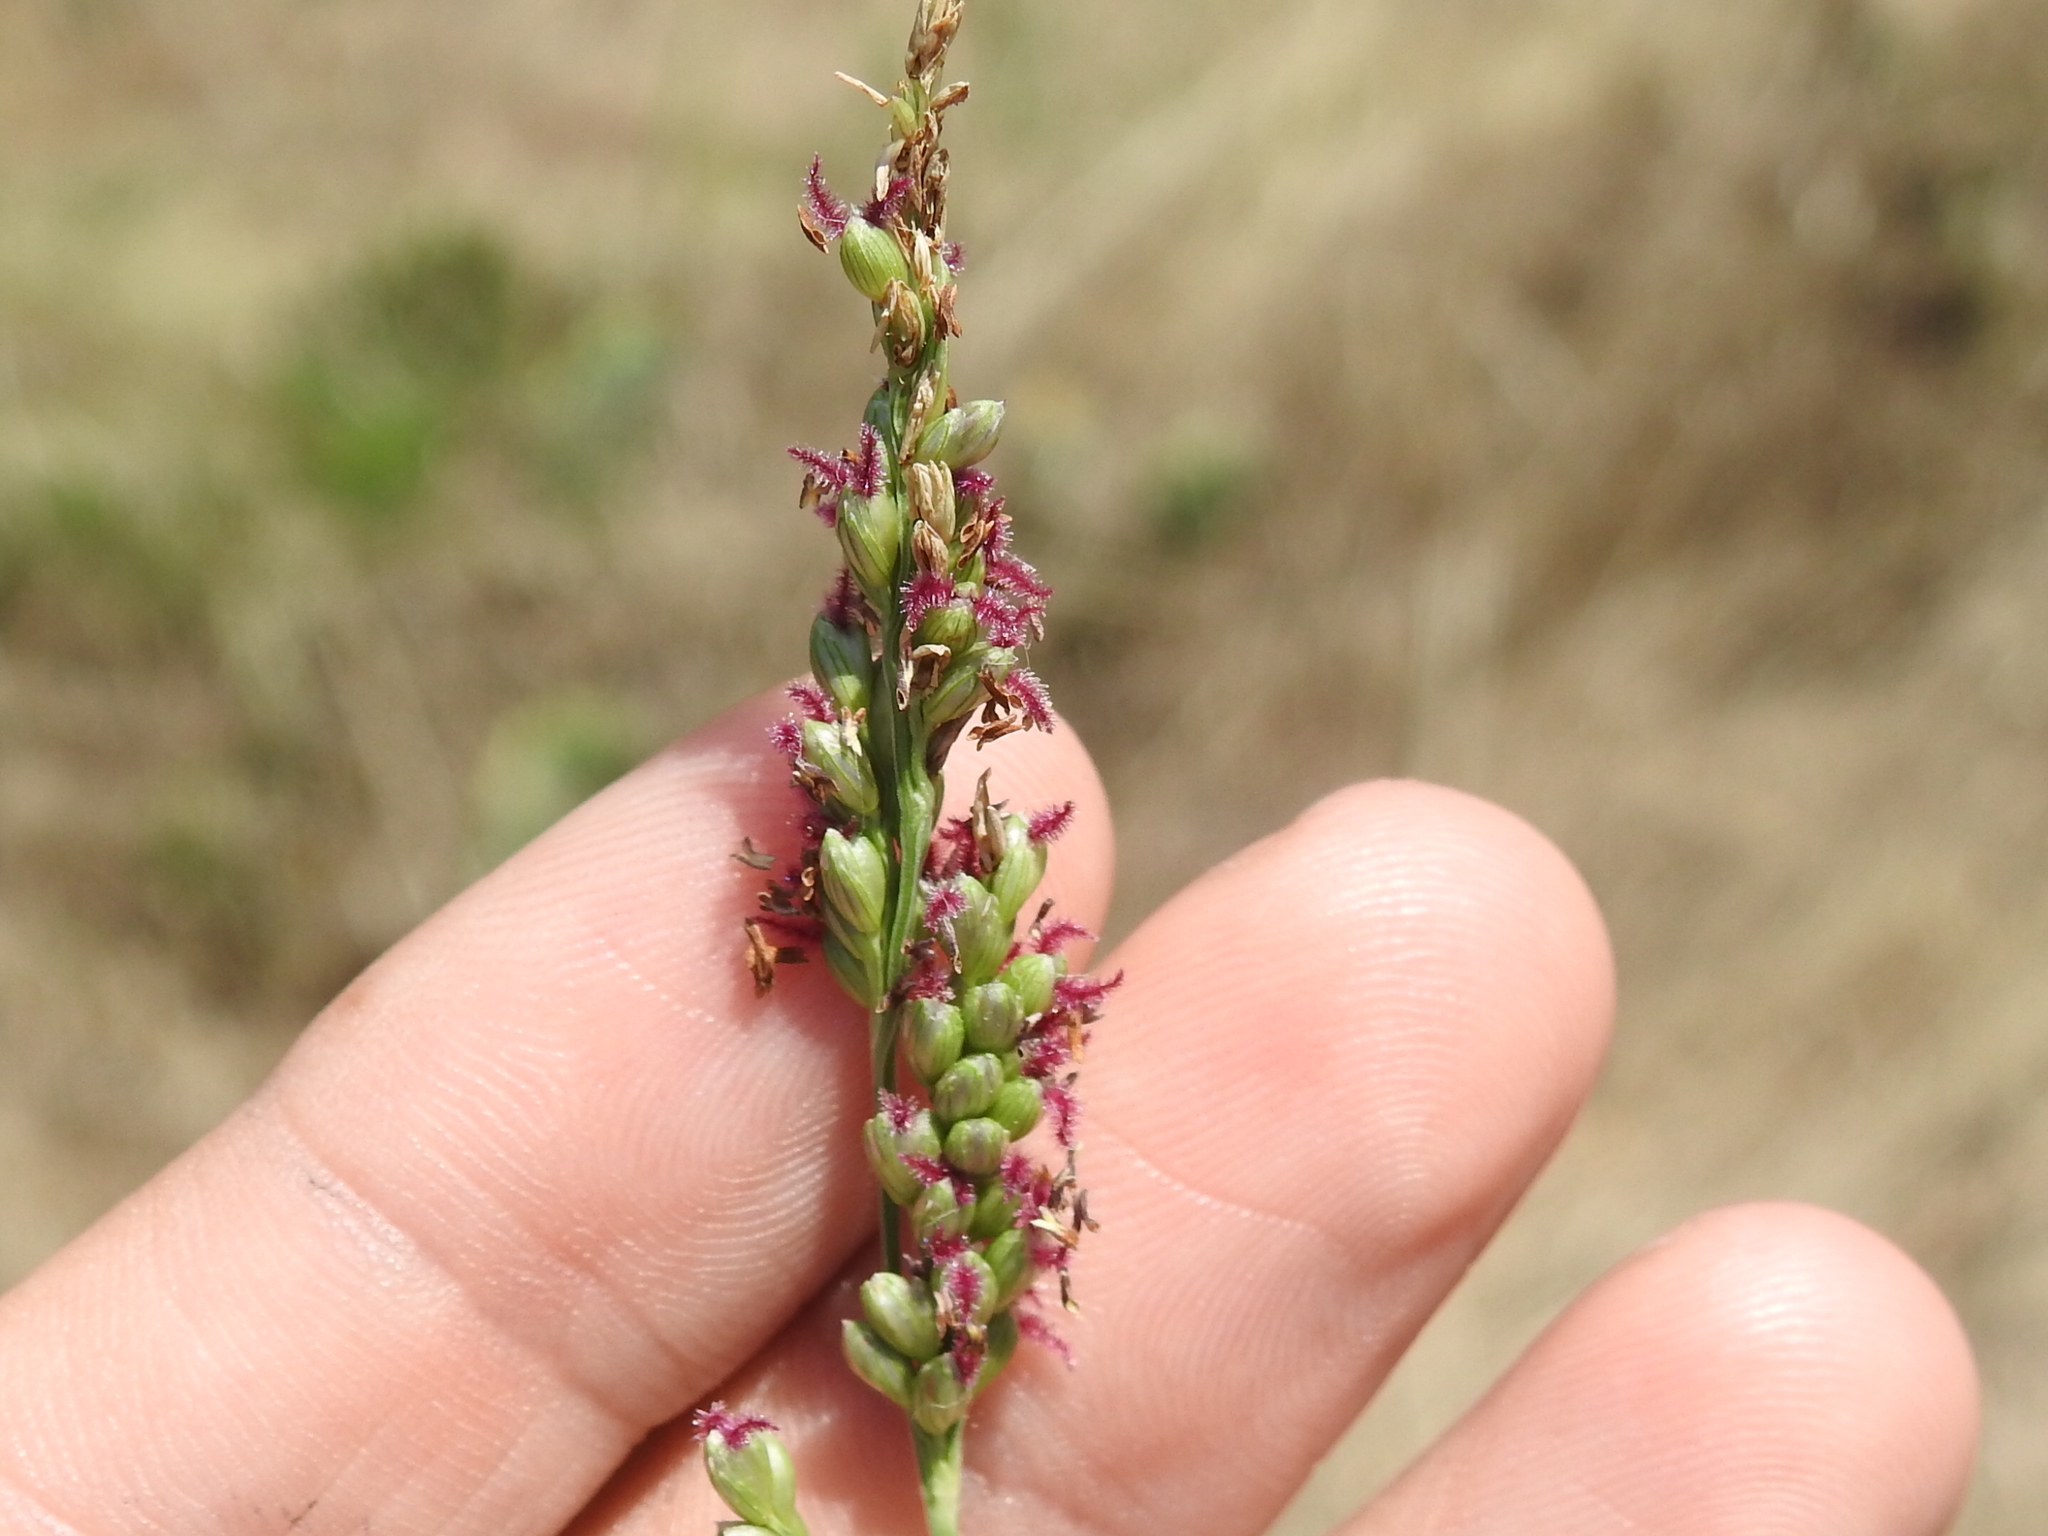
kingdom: Plantae
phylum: Tracheophyta
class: Liliopsida
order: Poales
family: Poaceae
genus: Hopia
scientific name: Hopia obtusa
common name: Vine-mesquite
